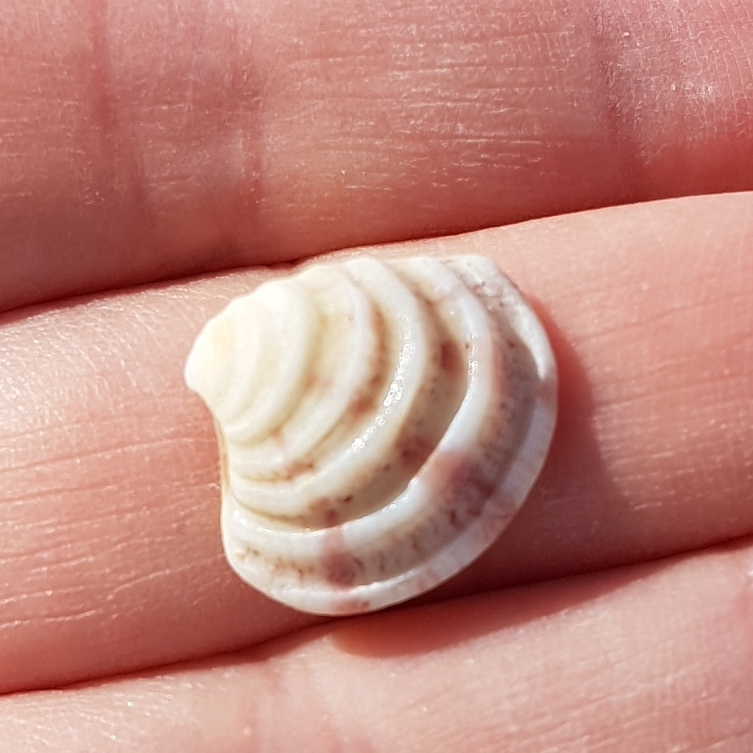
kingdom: Animalia
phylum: Mollusca
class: Bivalvia
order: Venerida
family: Veneridae
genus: Clausinella
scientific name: Clausinella fasciata
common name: Banded venus
